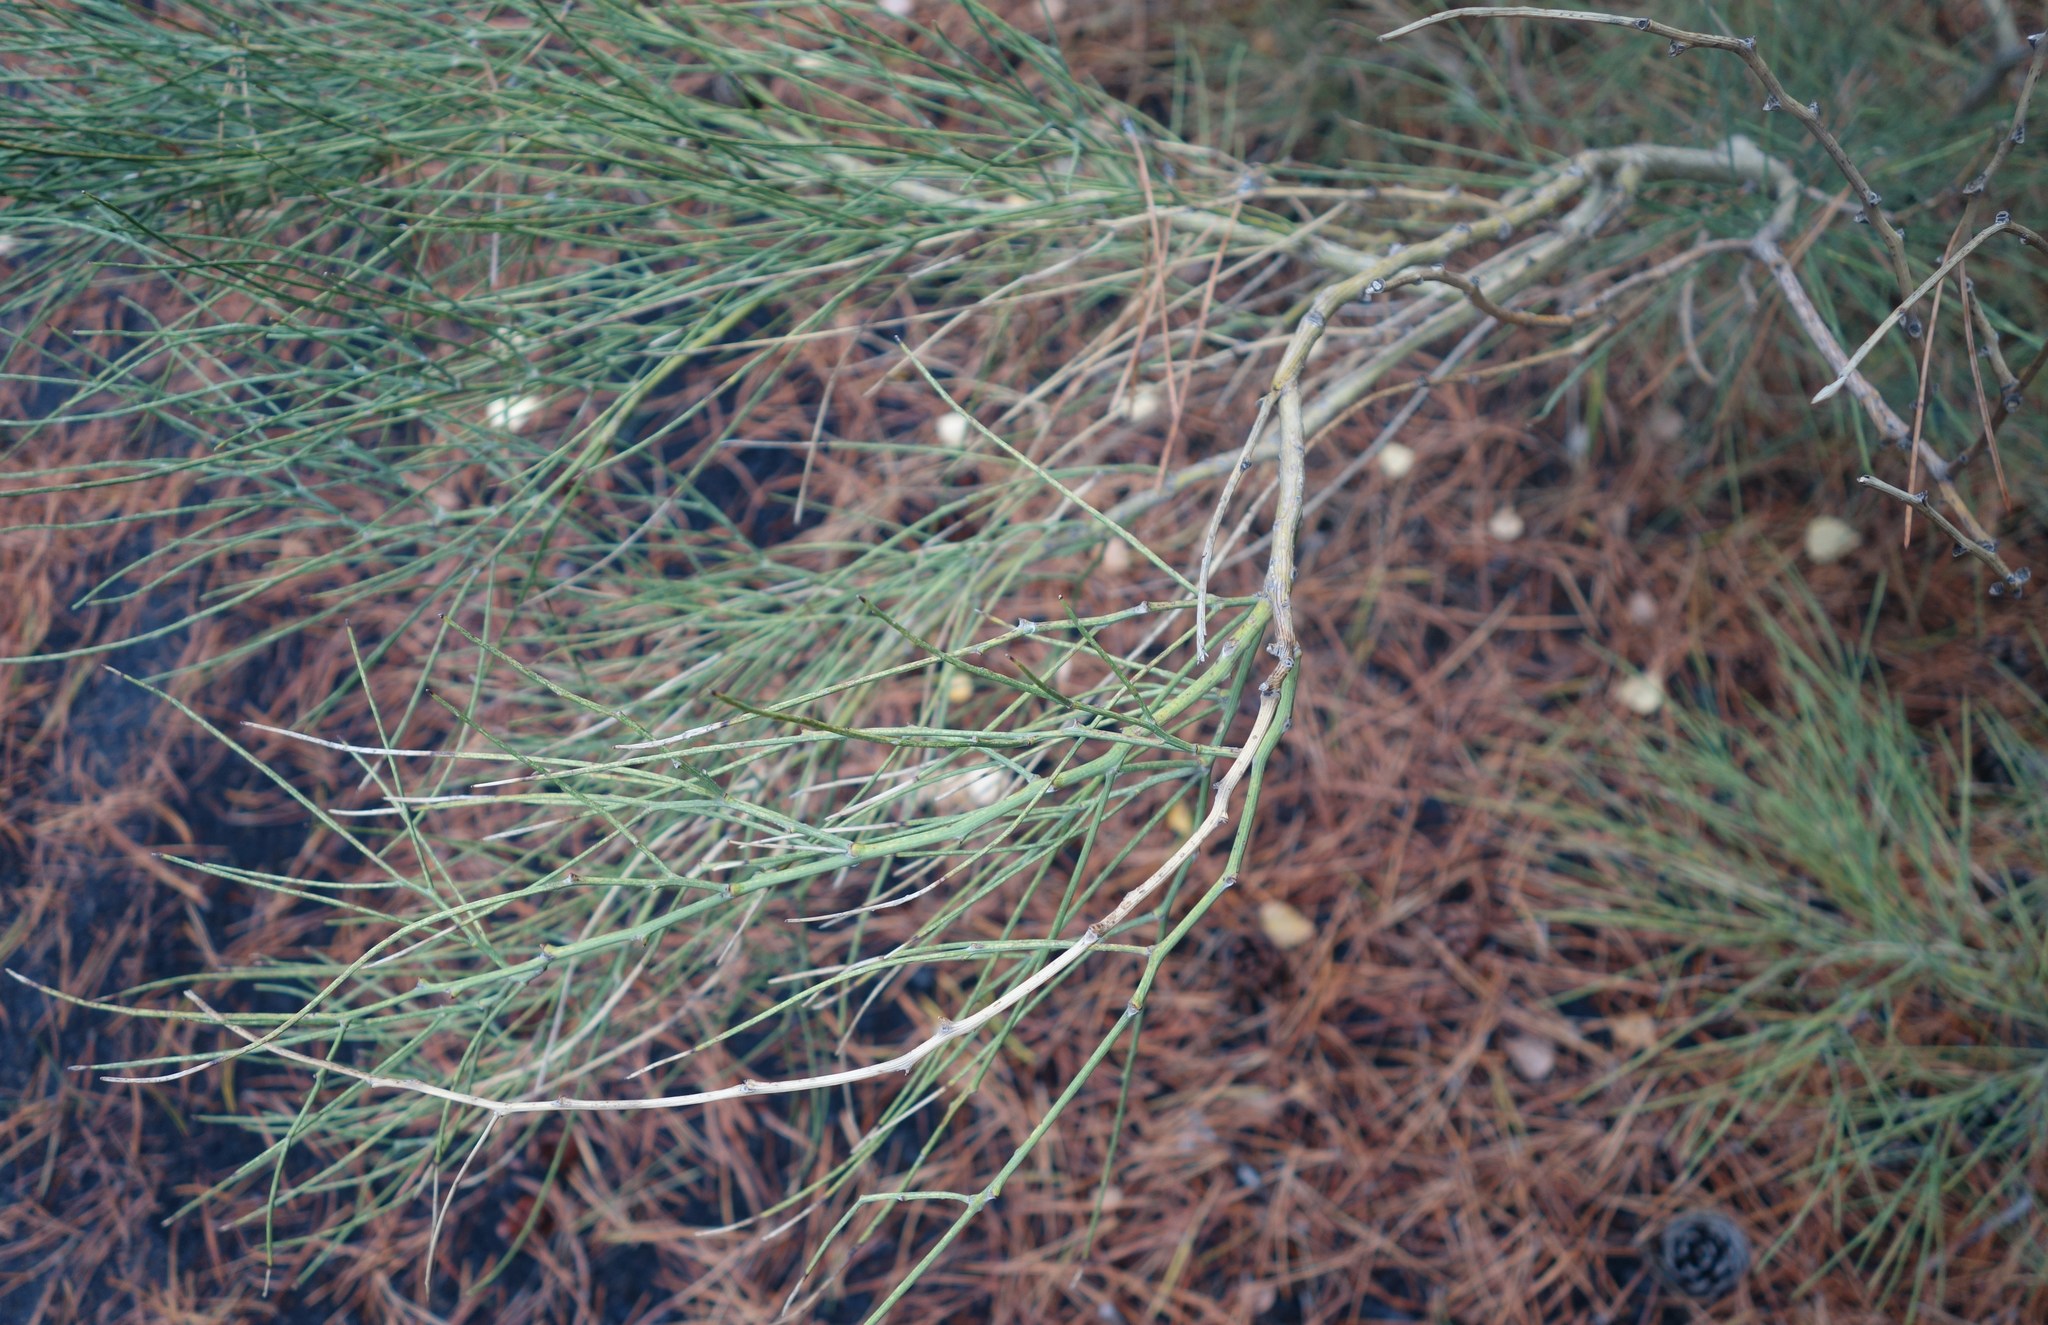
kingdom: Plantae
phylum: Tracheophyta
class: Magnoliopsida
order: Fabales
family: Fabaceae
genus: Genista
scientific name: Genista aetnensis
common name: Mount etna broom
